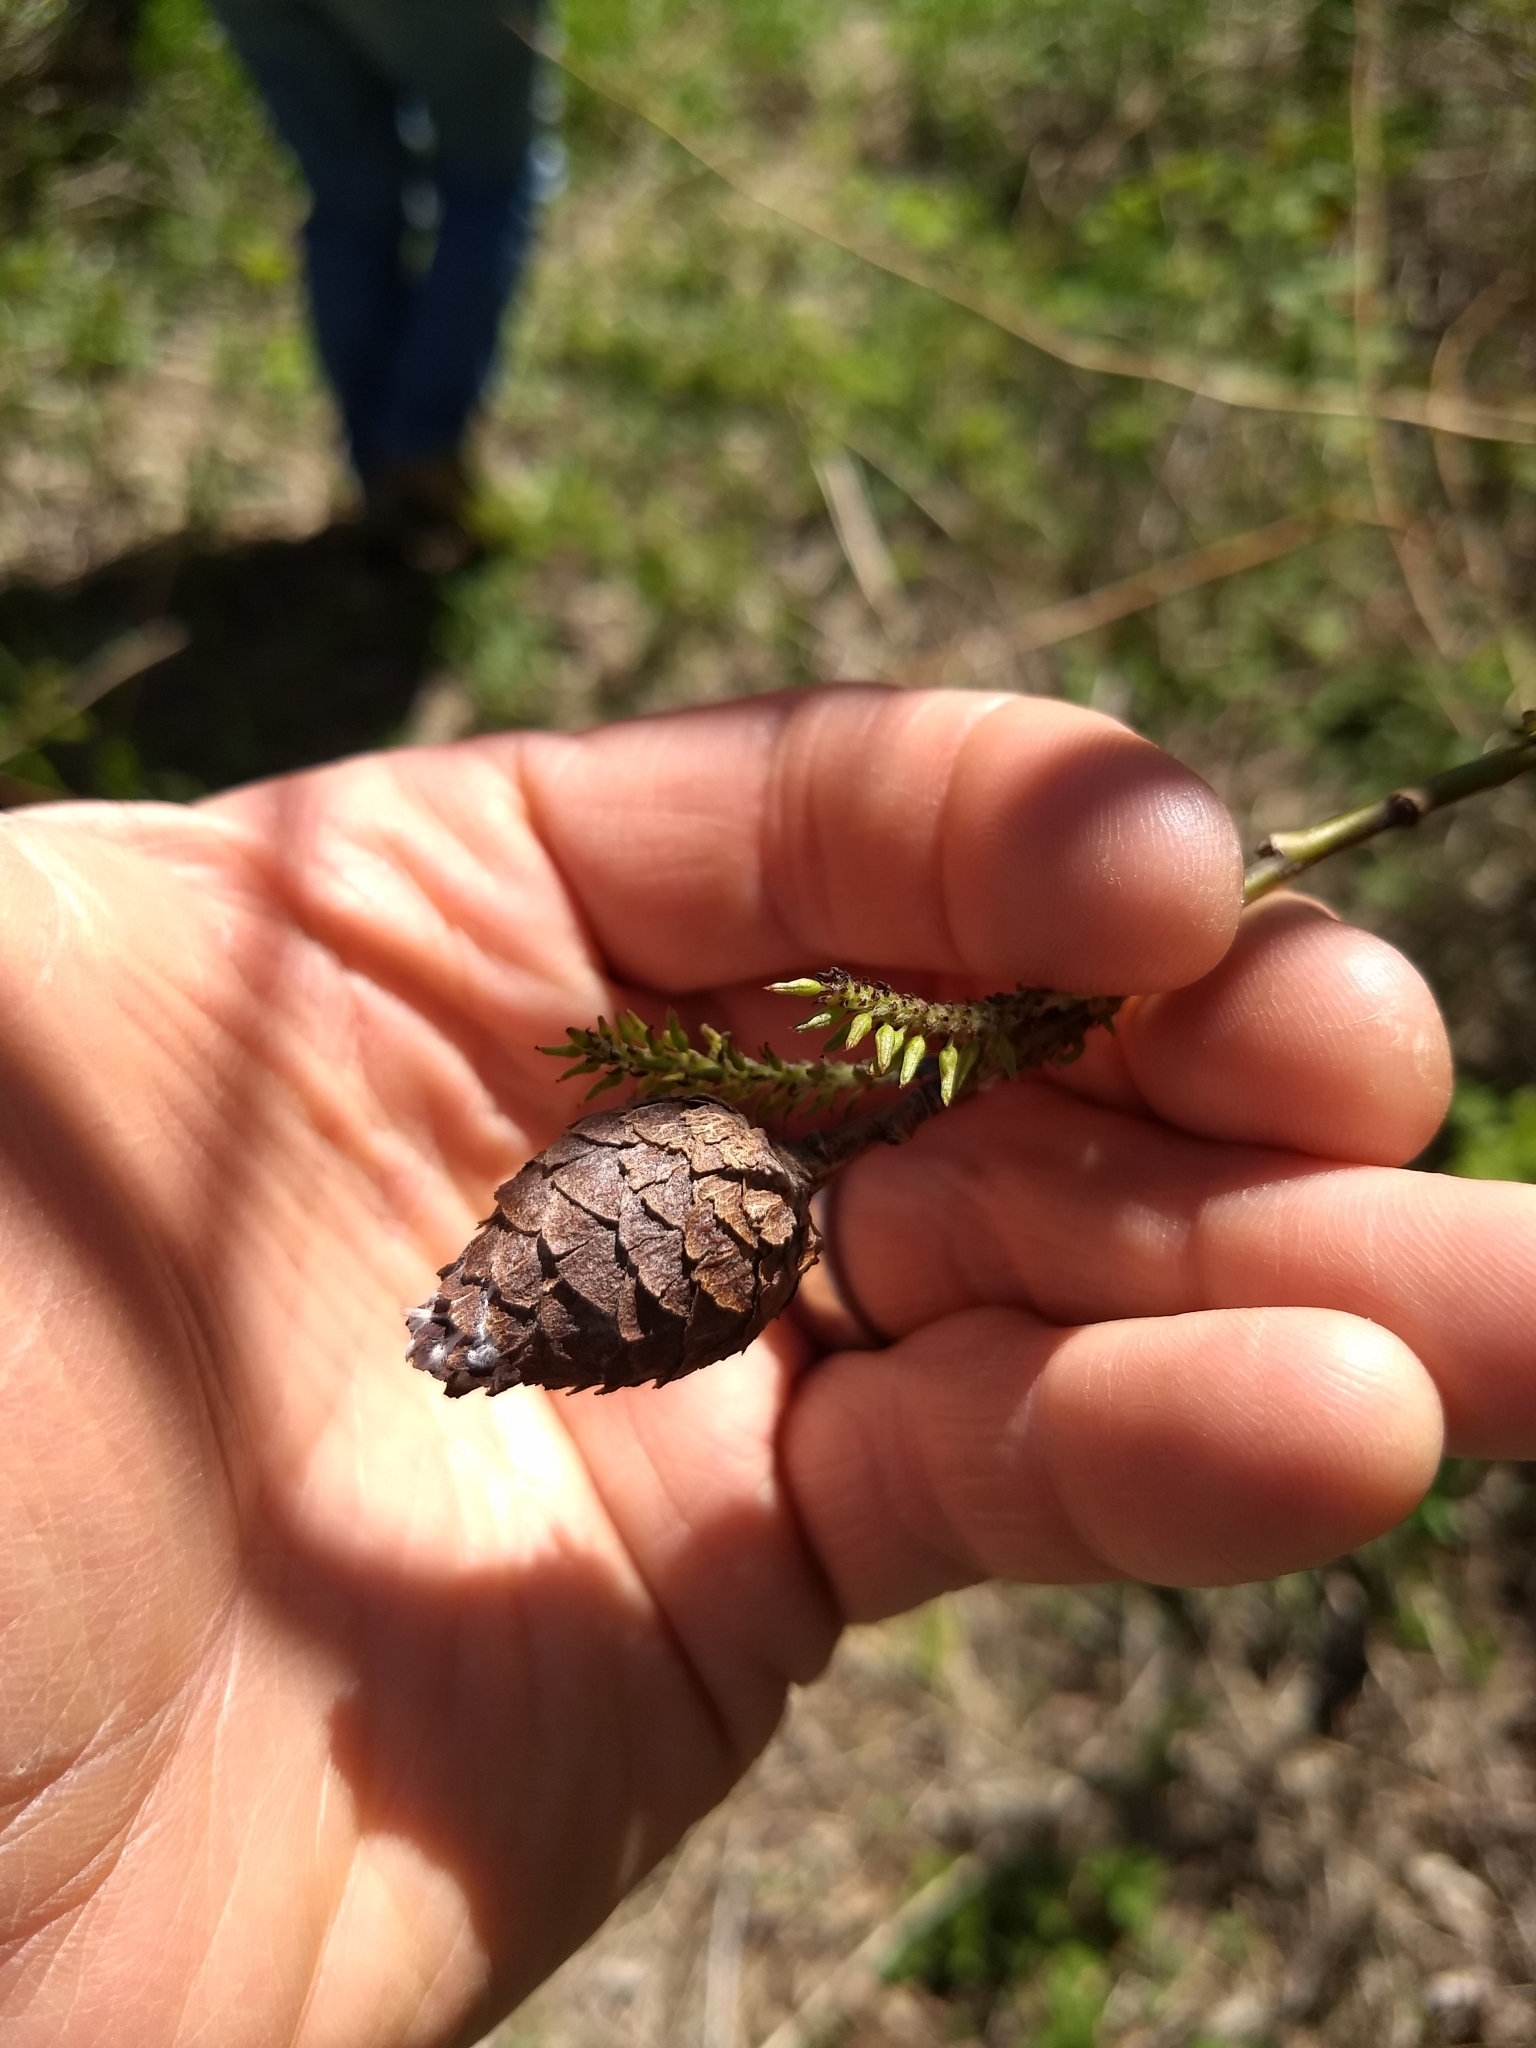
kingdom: Animalia
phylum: Arthropoda
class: Insecta
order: Diptera
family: Cecidomyiidae
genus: Rabdophaga
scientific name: Rabdophaga strobiloides
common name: Willow pinecone gall midge
